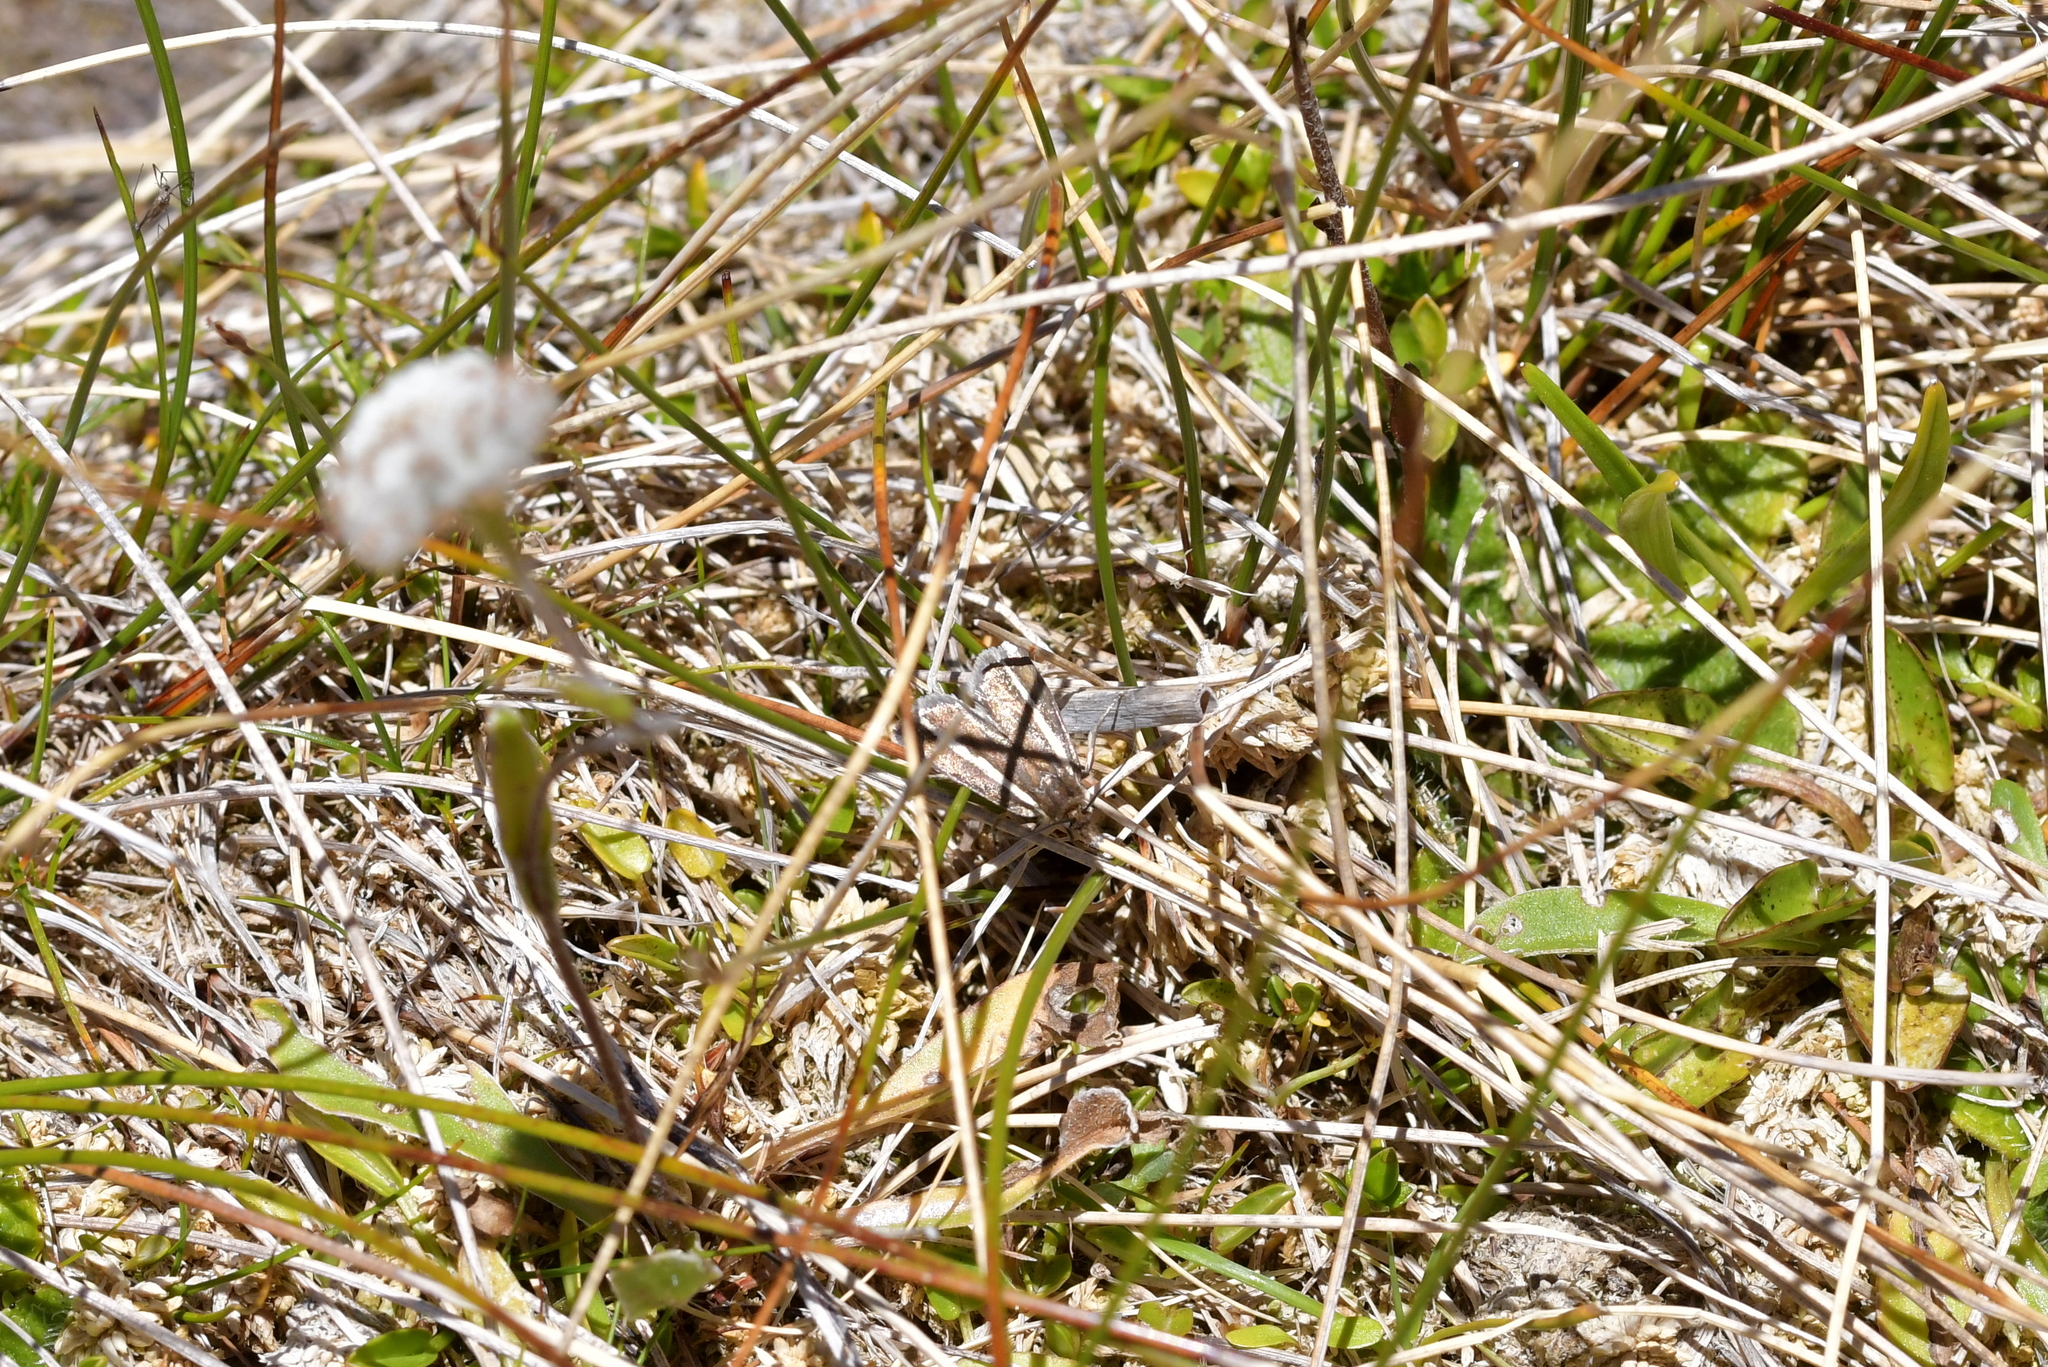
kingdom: Animalia
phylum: Arthropoda
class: Insecta
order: Lepidoptera
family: Crambidae
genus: Orocrambus
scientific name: Orocrambus catacaustus
